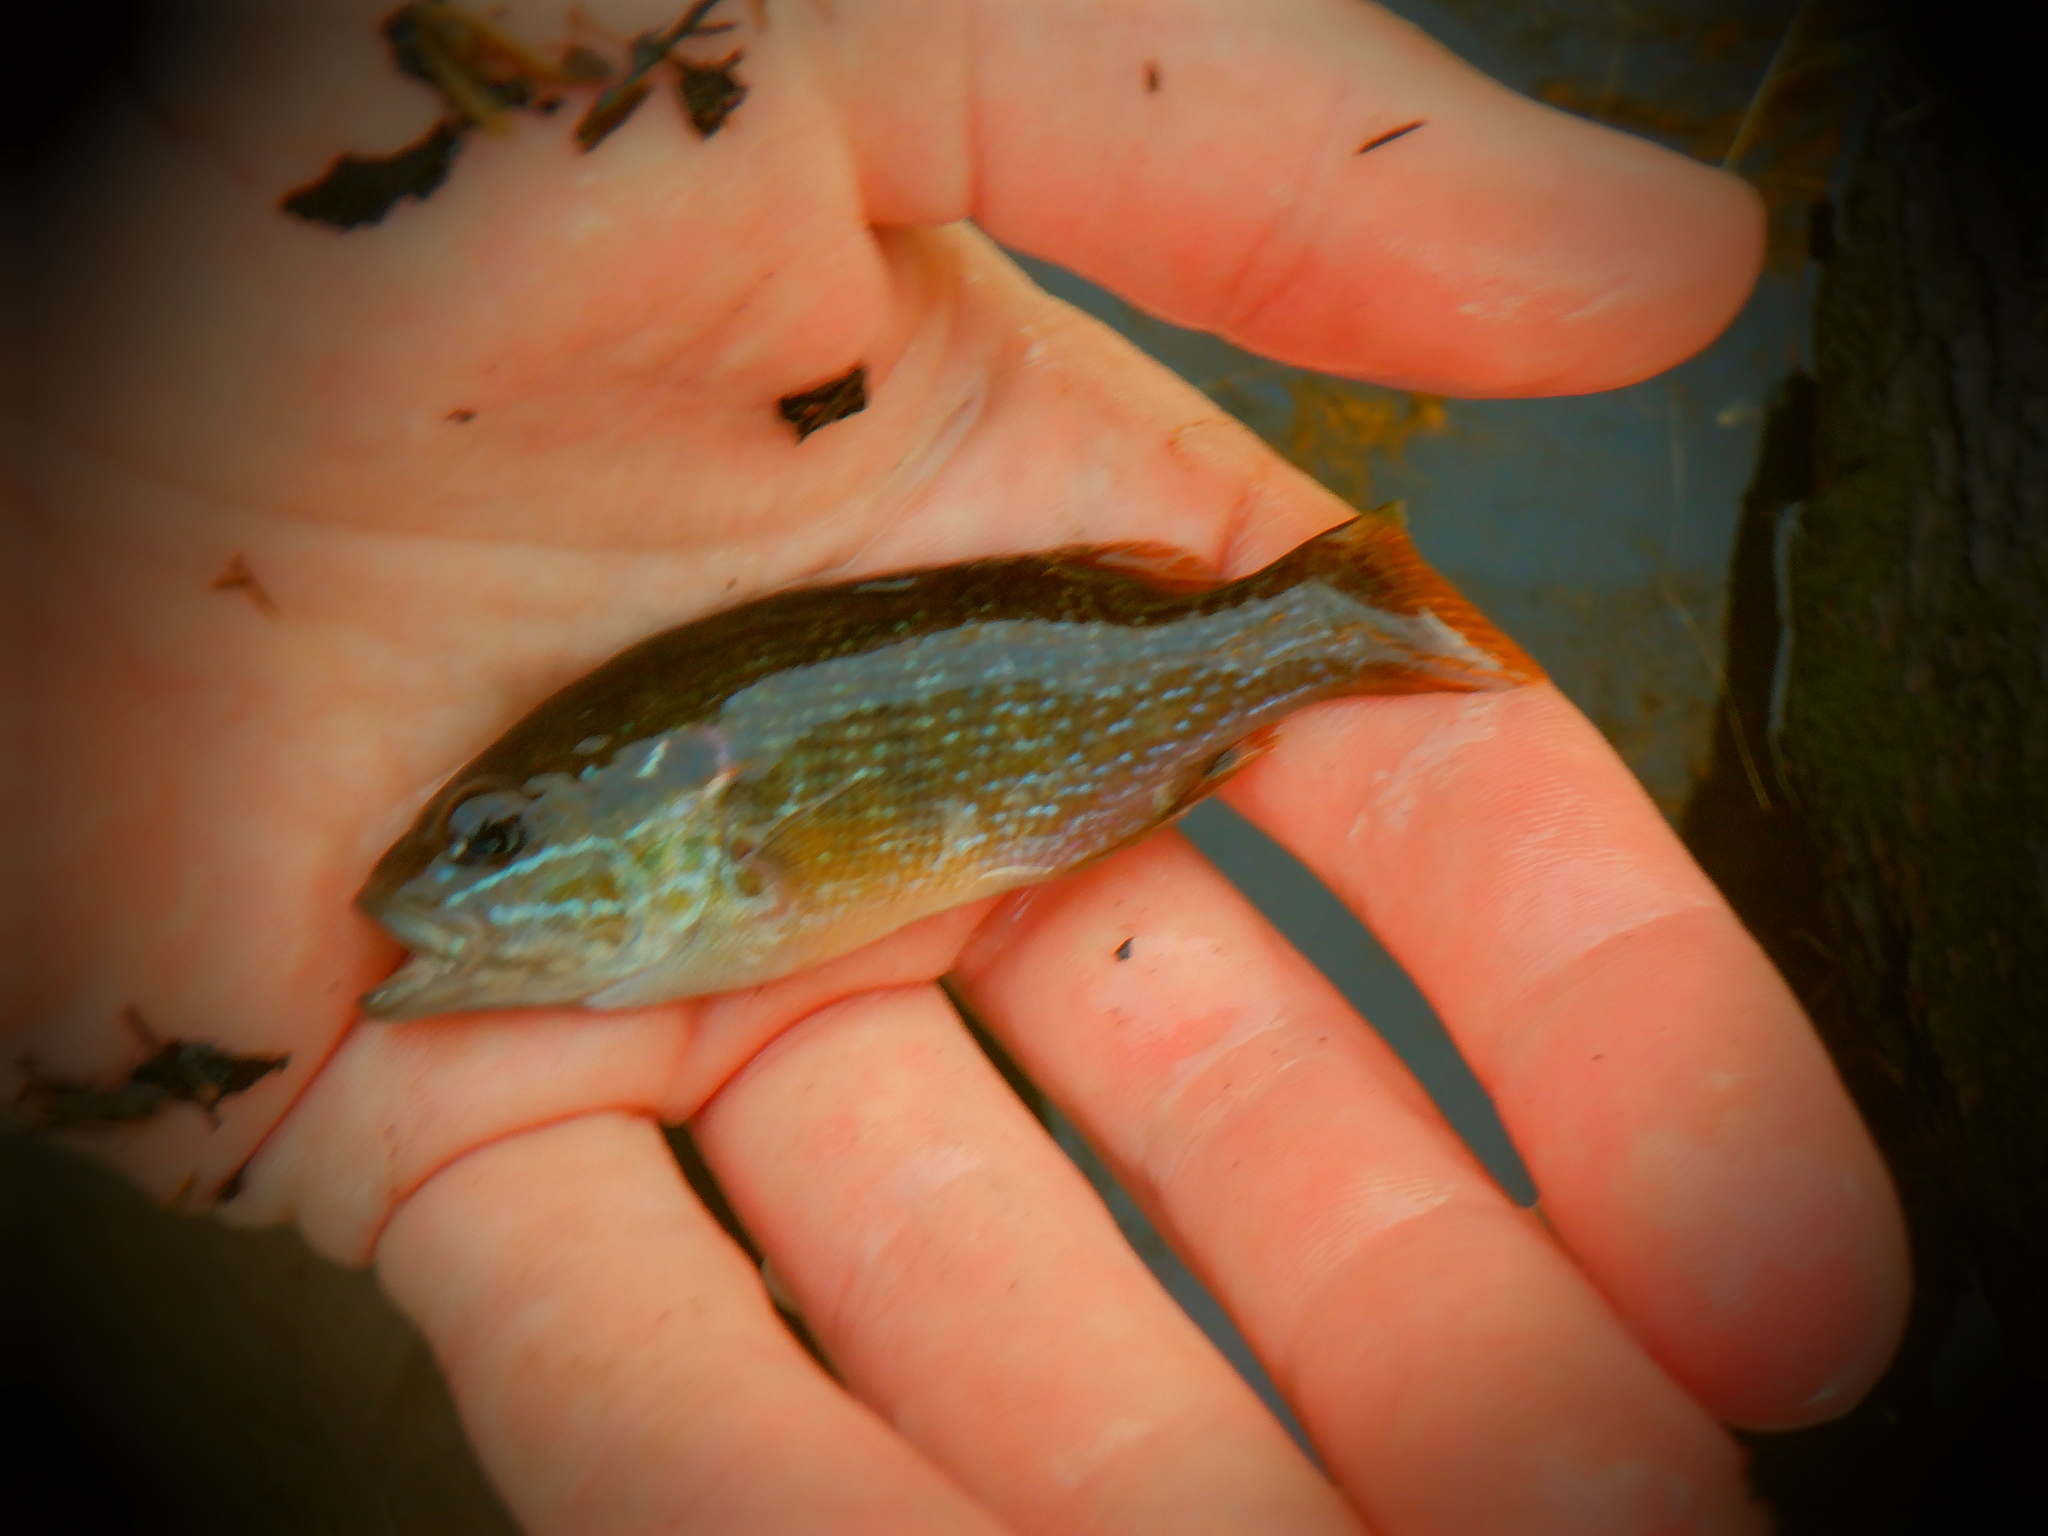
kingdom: Animalia
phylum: Chordata
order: Perciformes
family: Centrarchidae
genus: Lepomis
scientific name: Lepomis cyanellus
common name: Green sunfish
